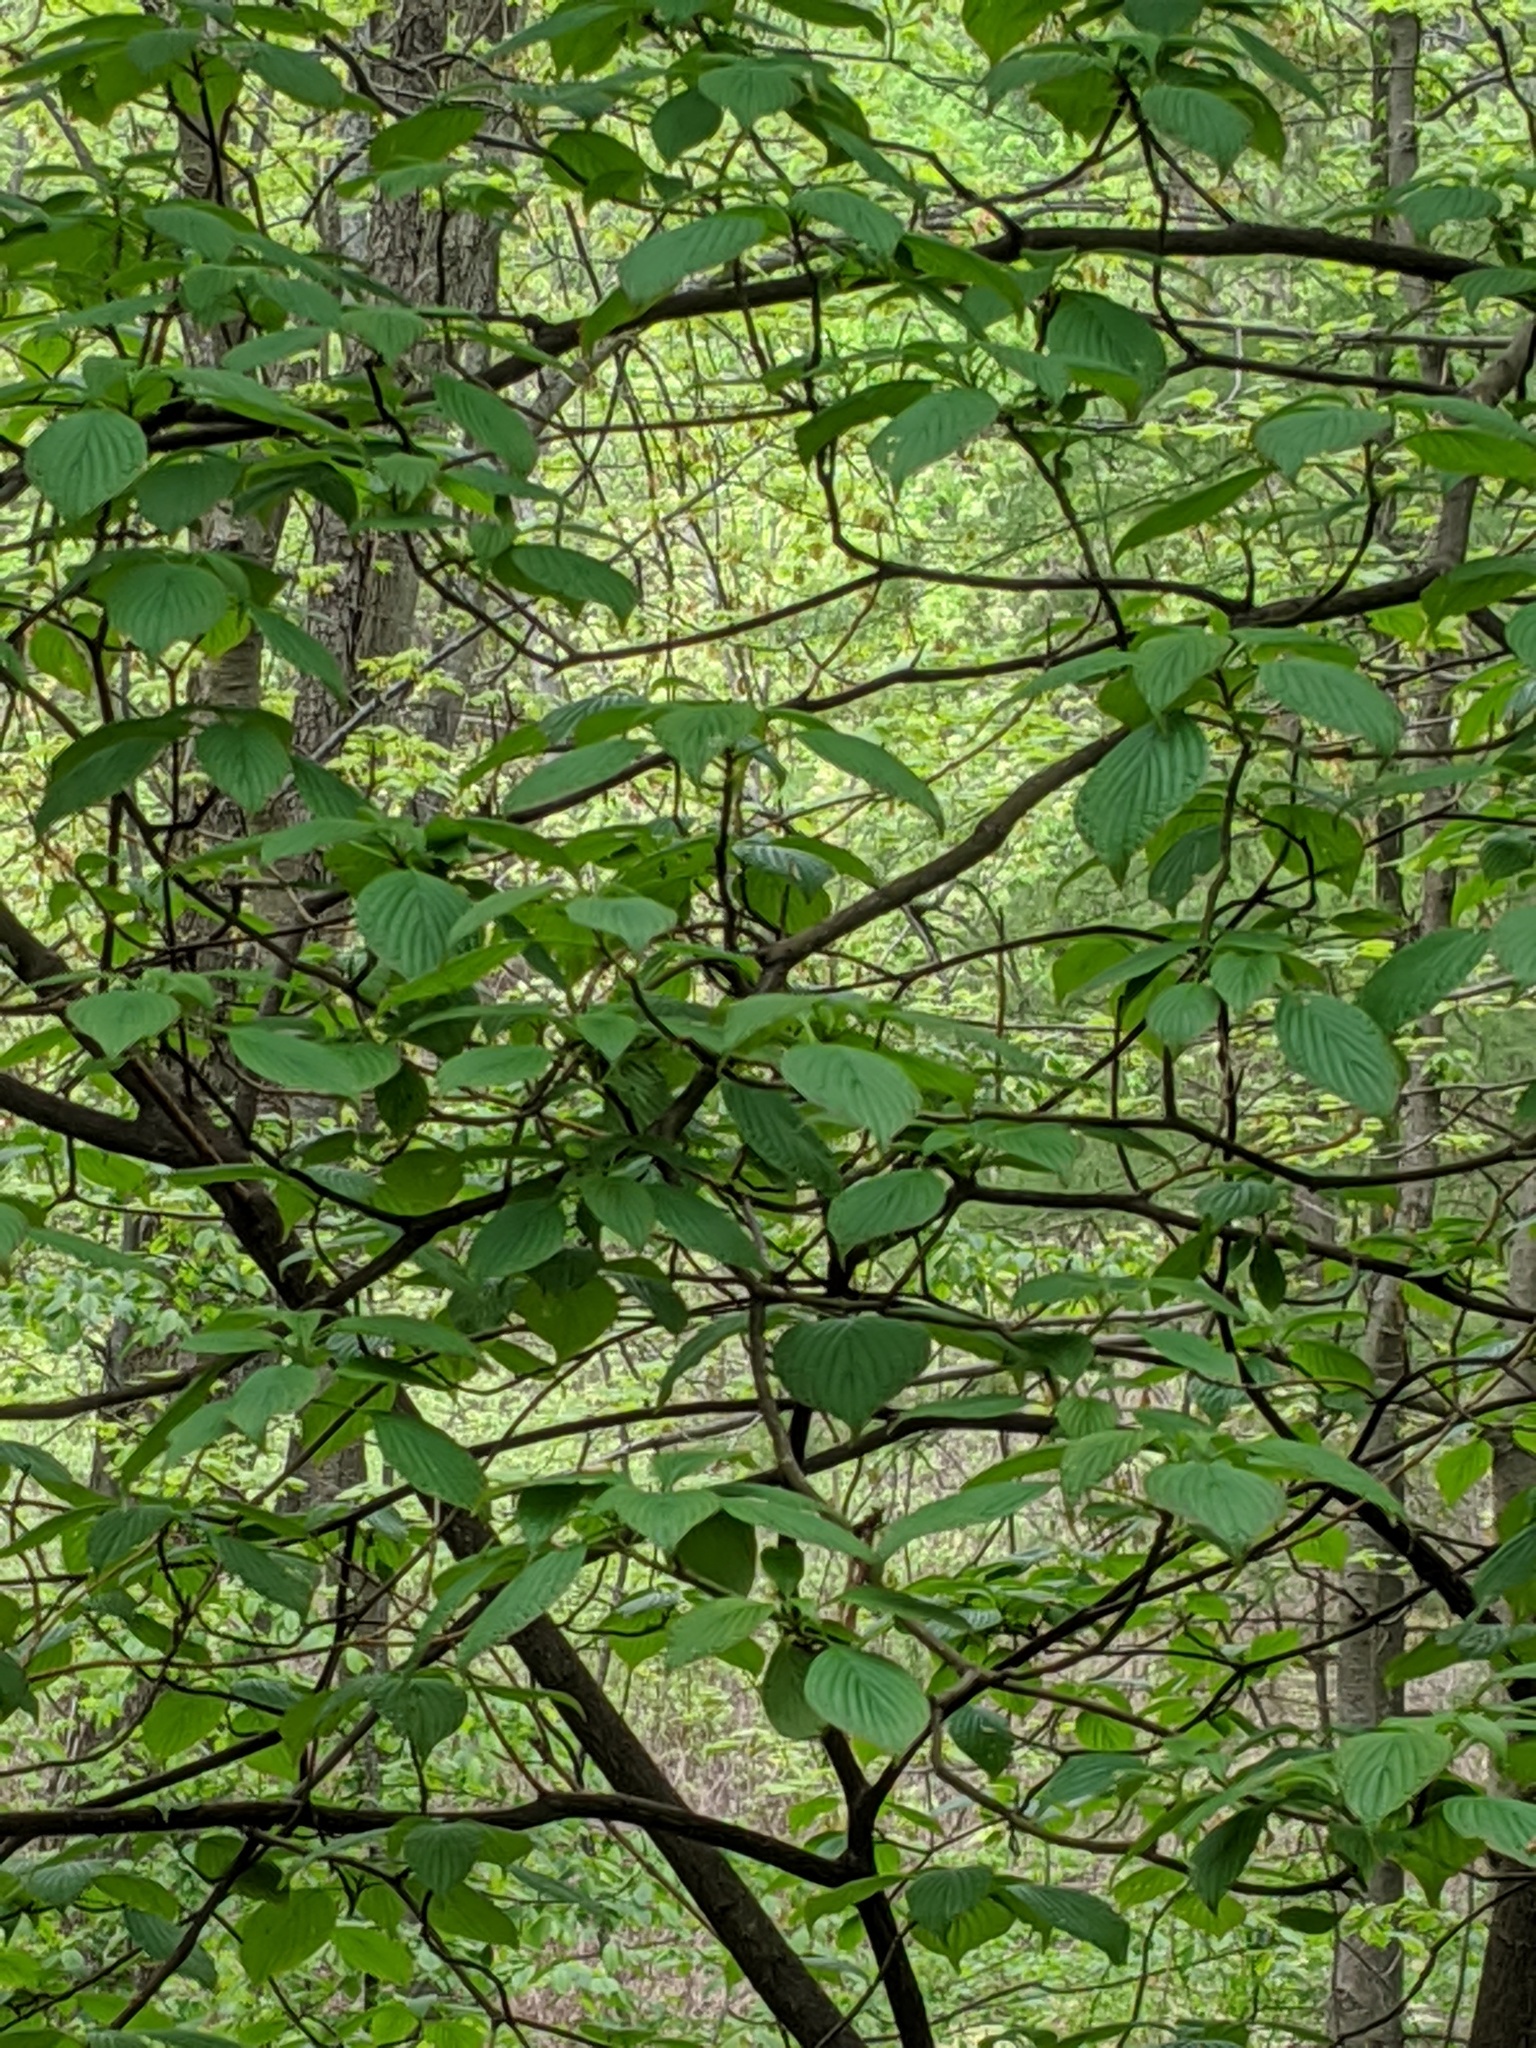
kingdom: Plantae
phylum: Tracheophyta
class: Magnoliopsida
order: Cornales
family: Cornaceae
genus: Cornus
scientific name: Cornus alternifolia
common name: Pagoda dogwood
